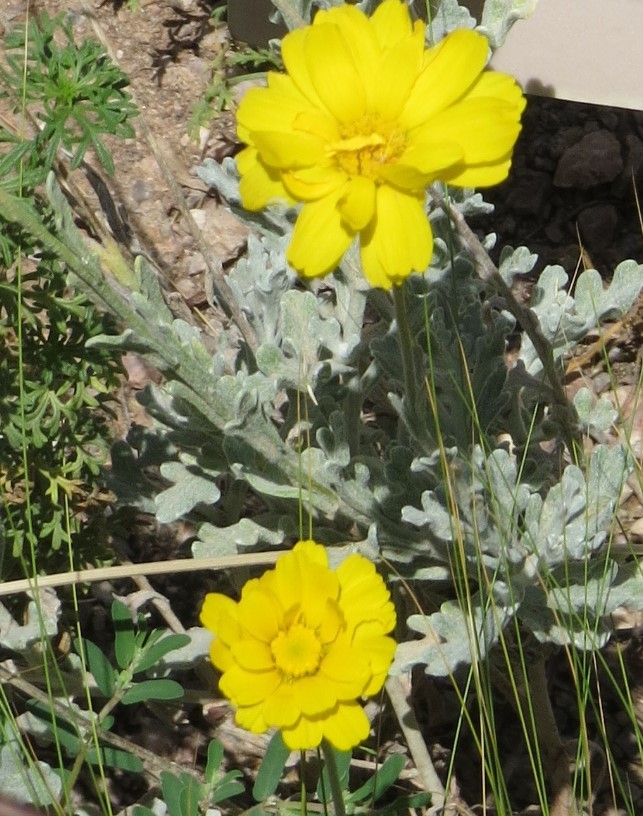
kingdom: Plantae
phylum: Tracheophyta
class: Magnoliopsida
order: Asterales
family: Asteraceae
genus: Baileya
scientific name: Baileya multiradiata
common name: Desert-marigold
